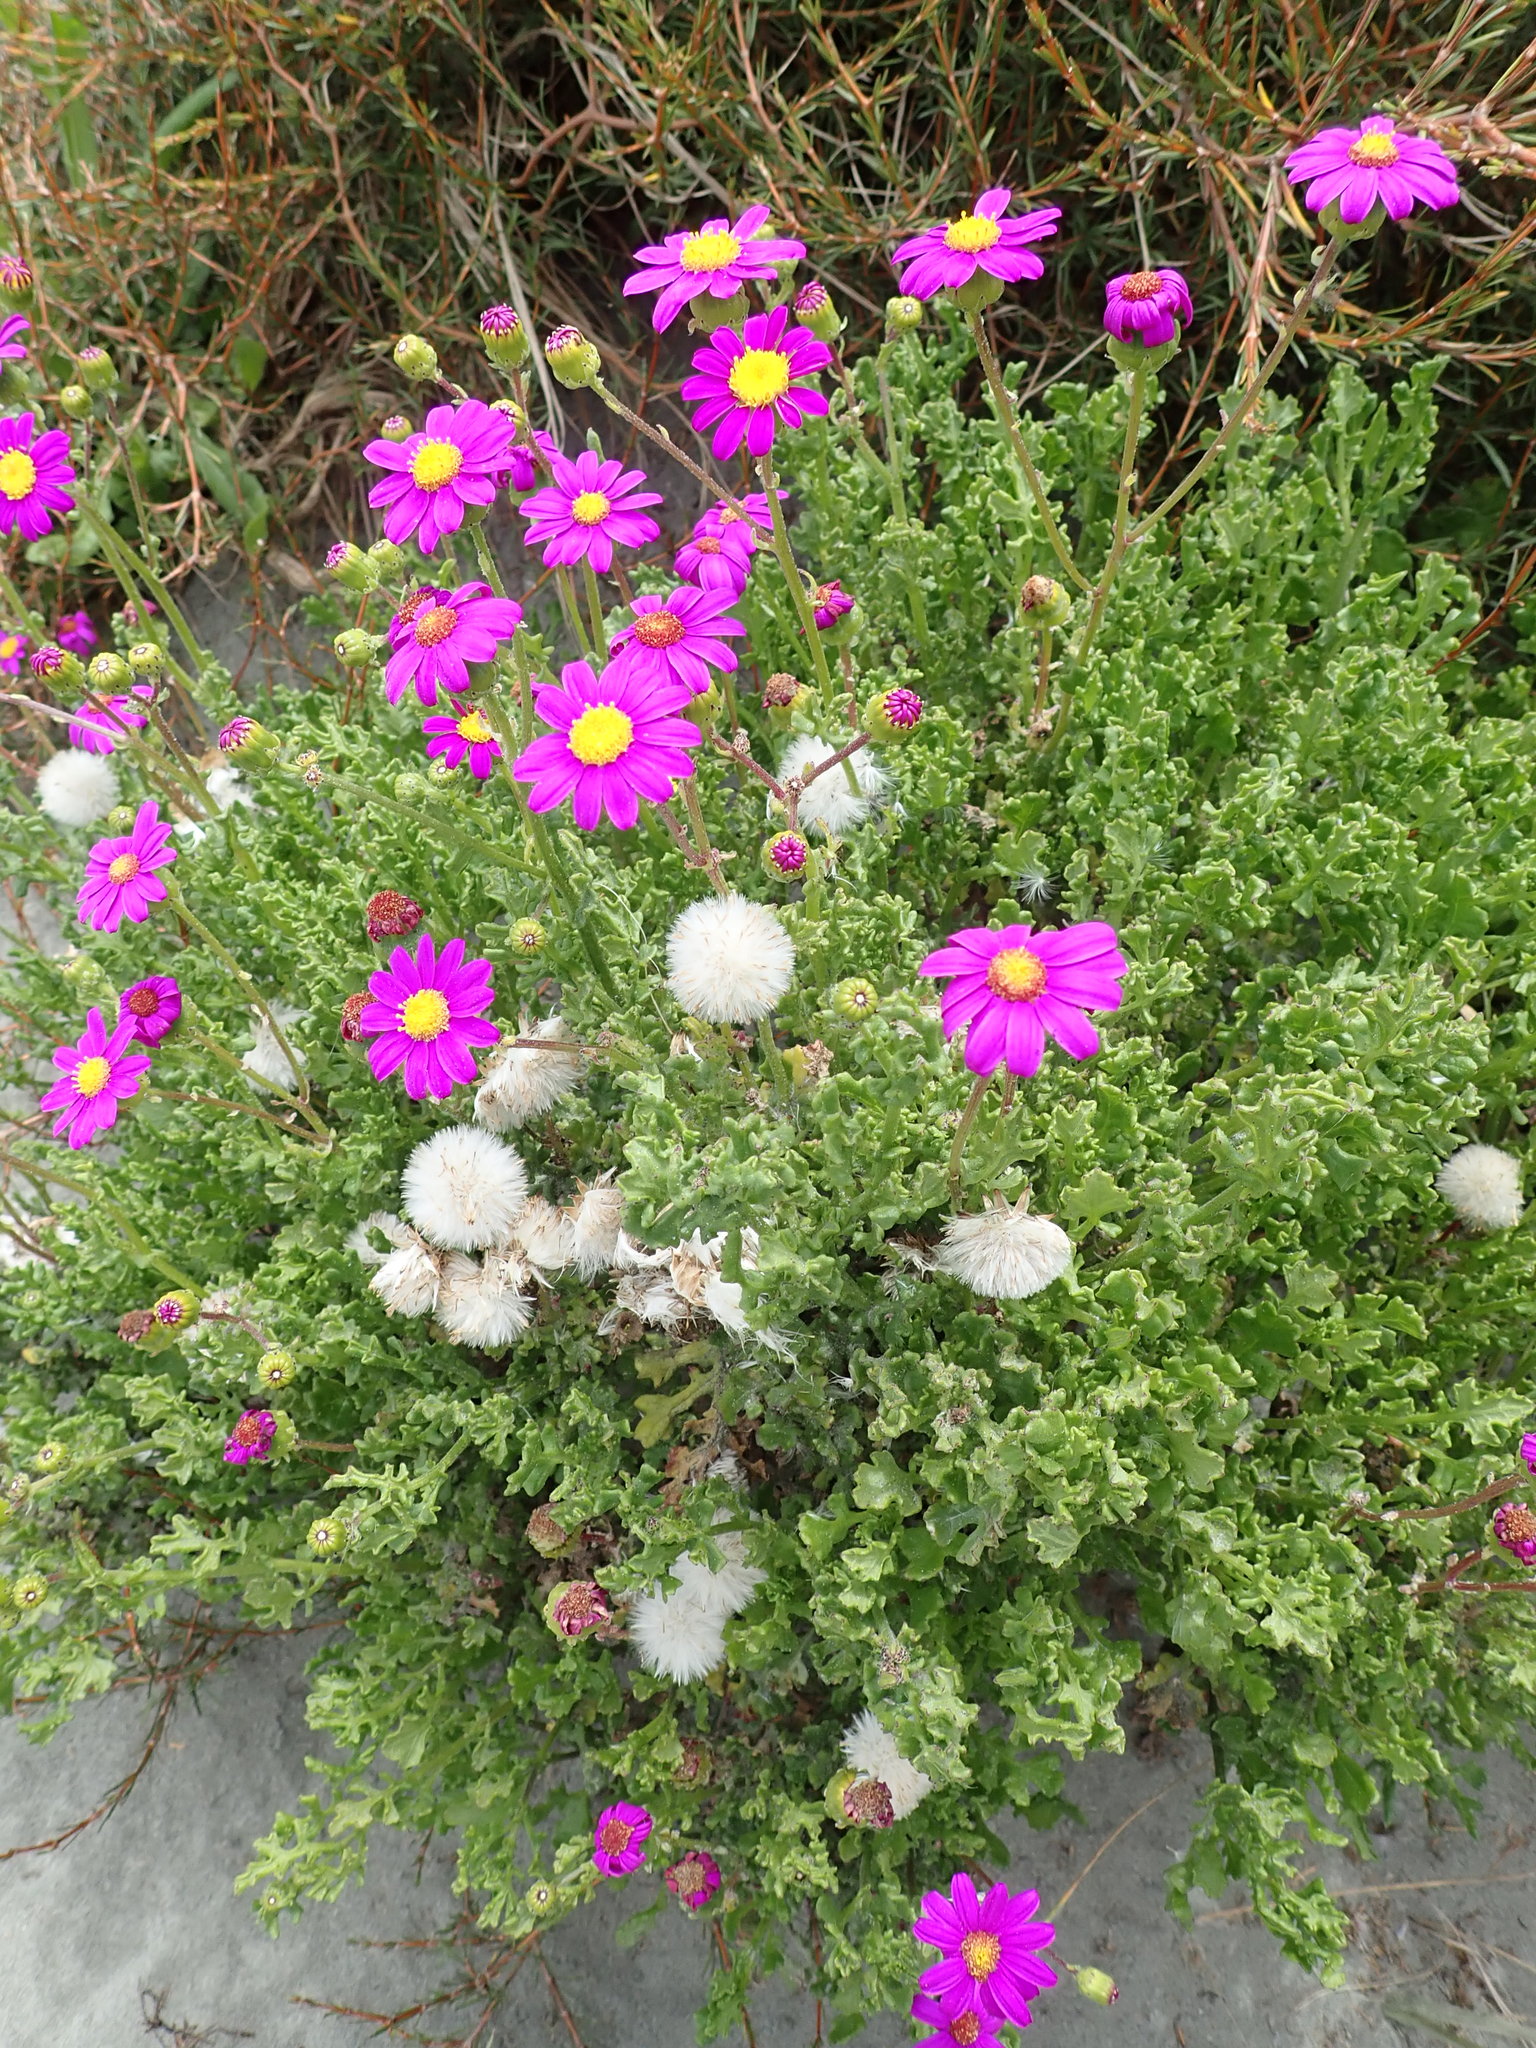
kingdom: Plantae
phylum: Tracheophyta
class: Magnoliopsida
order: Asterales
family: Asteraceae
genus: Senecio
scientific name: Senecio elegans
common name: Purple groundsel
